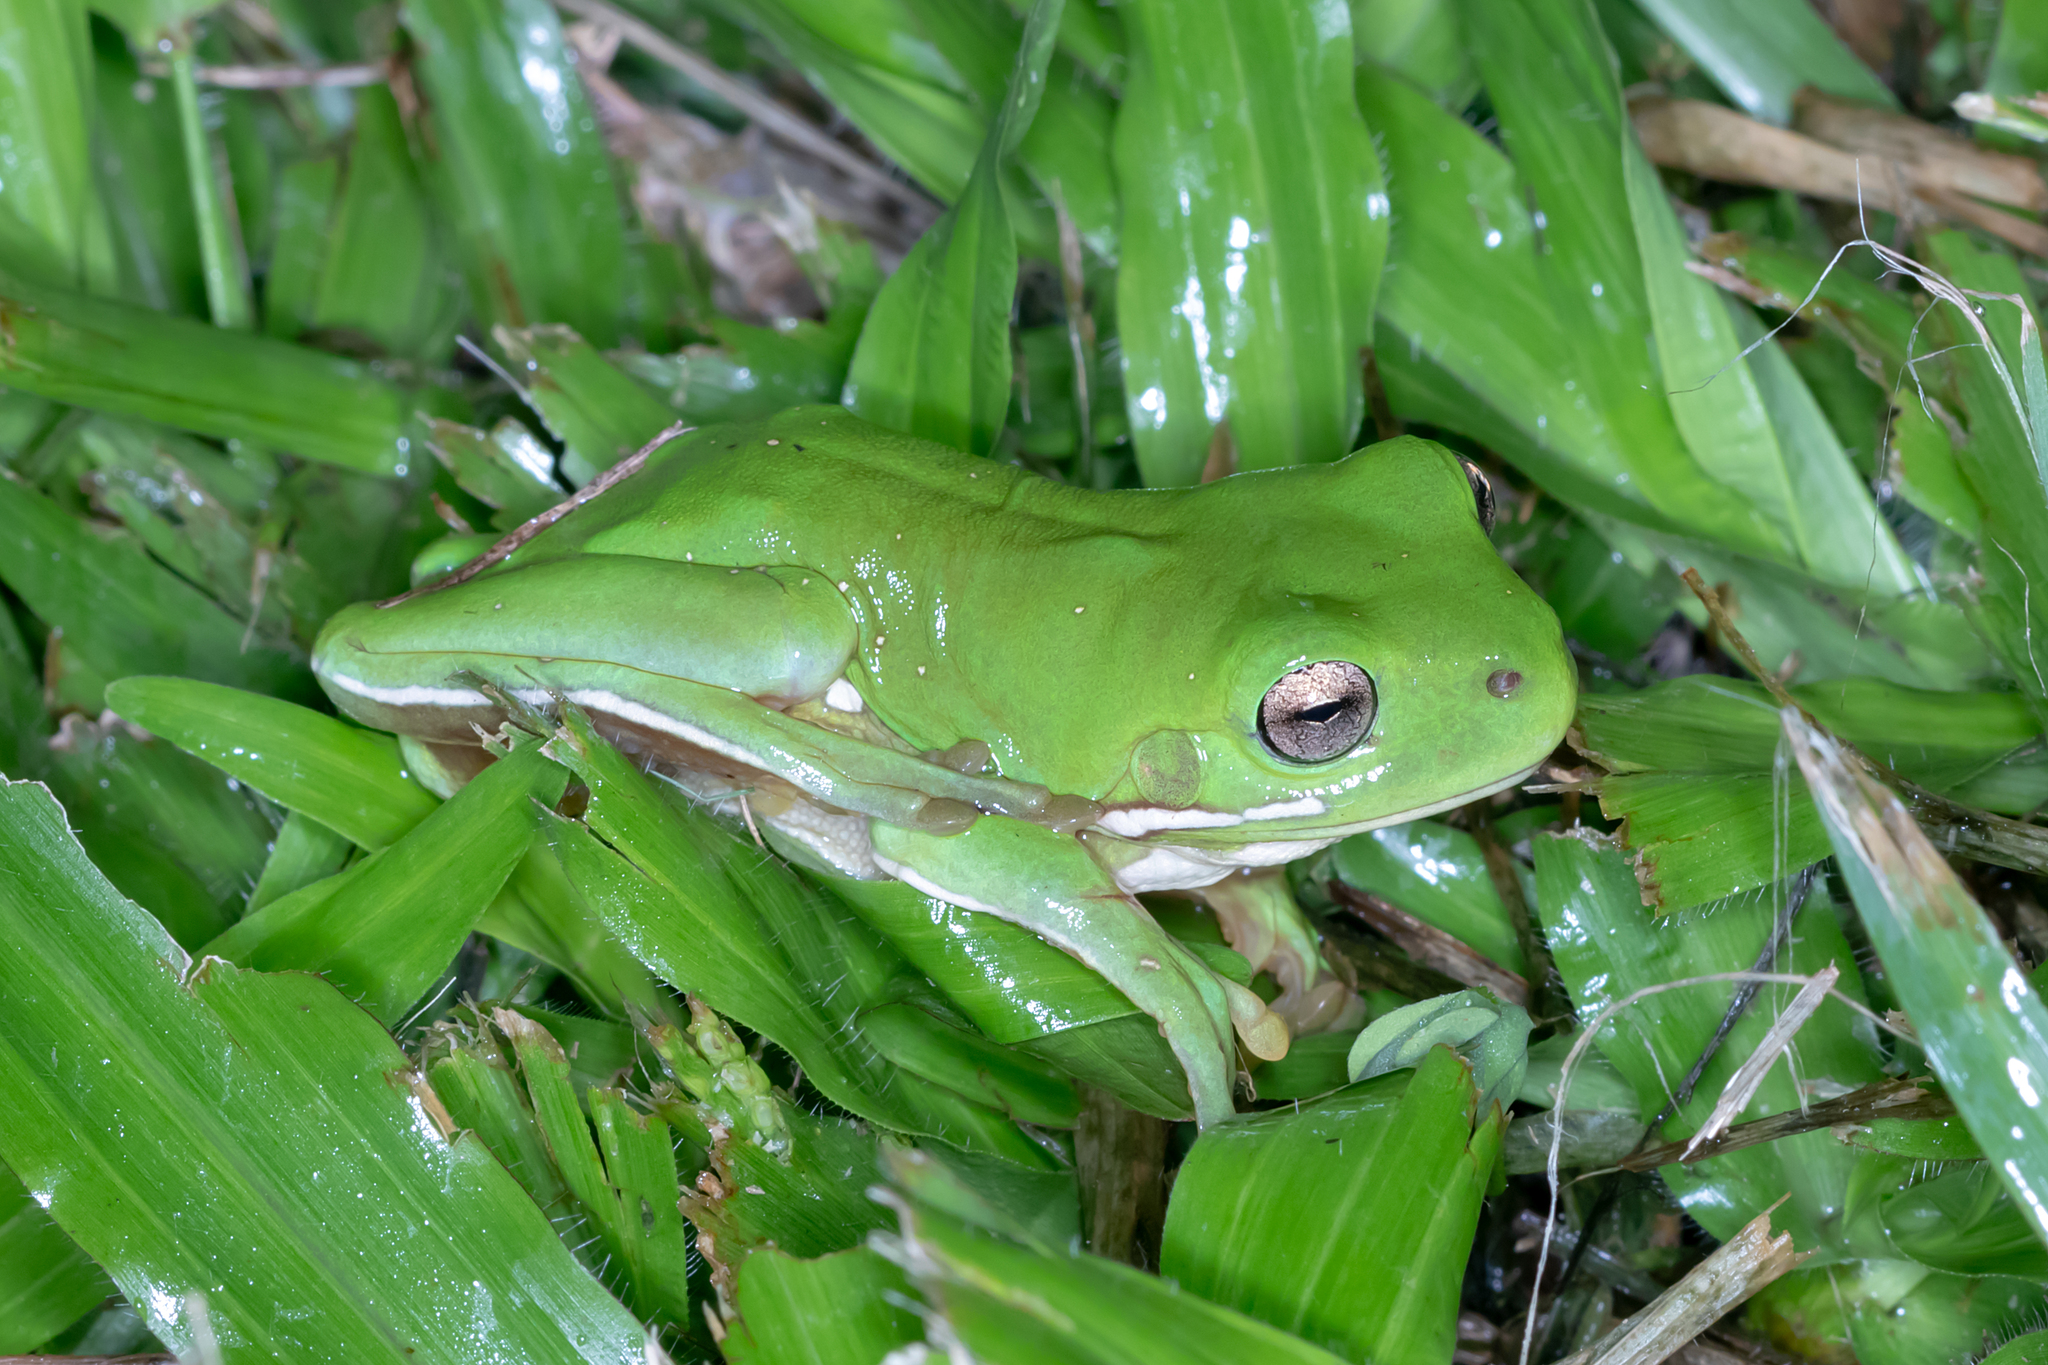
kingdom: Animalia
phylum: Chordata
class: Amphibia
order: Anura
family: Pelodryadidae
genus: Ranoidea
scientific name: Ranoidea caerulea
